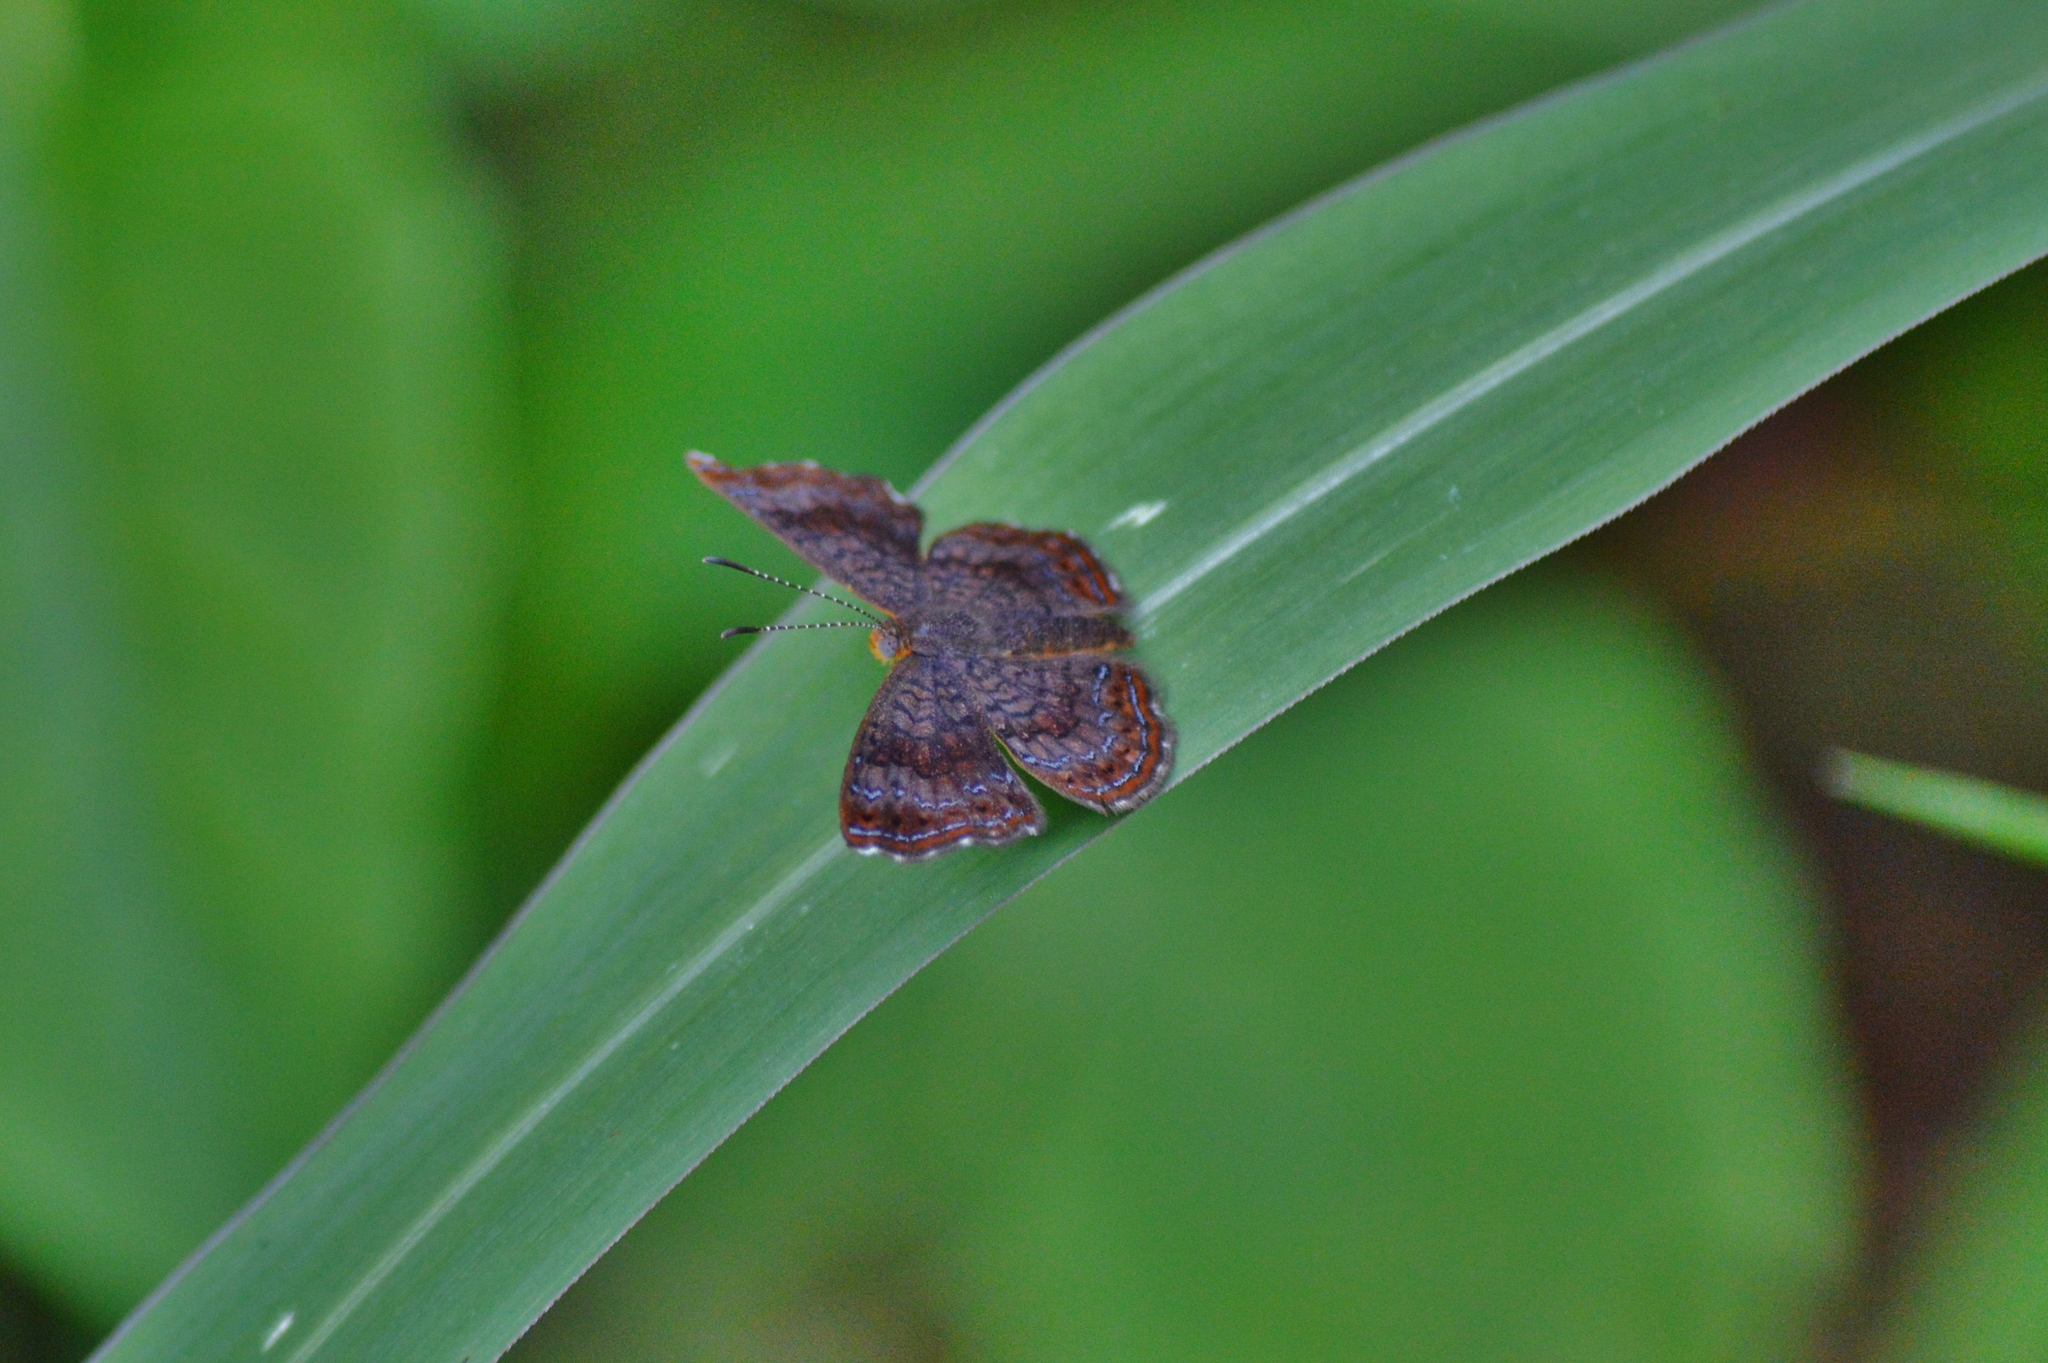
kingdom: Animalia
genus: Calephelis
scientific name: Calephelis aymaran
